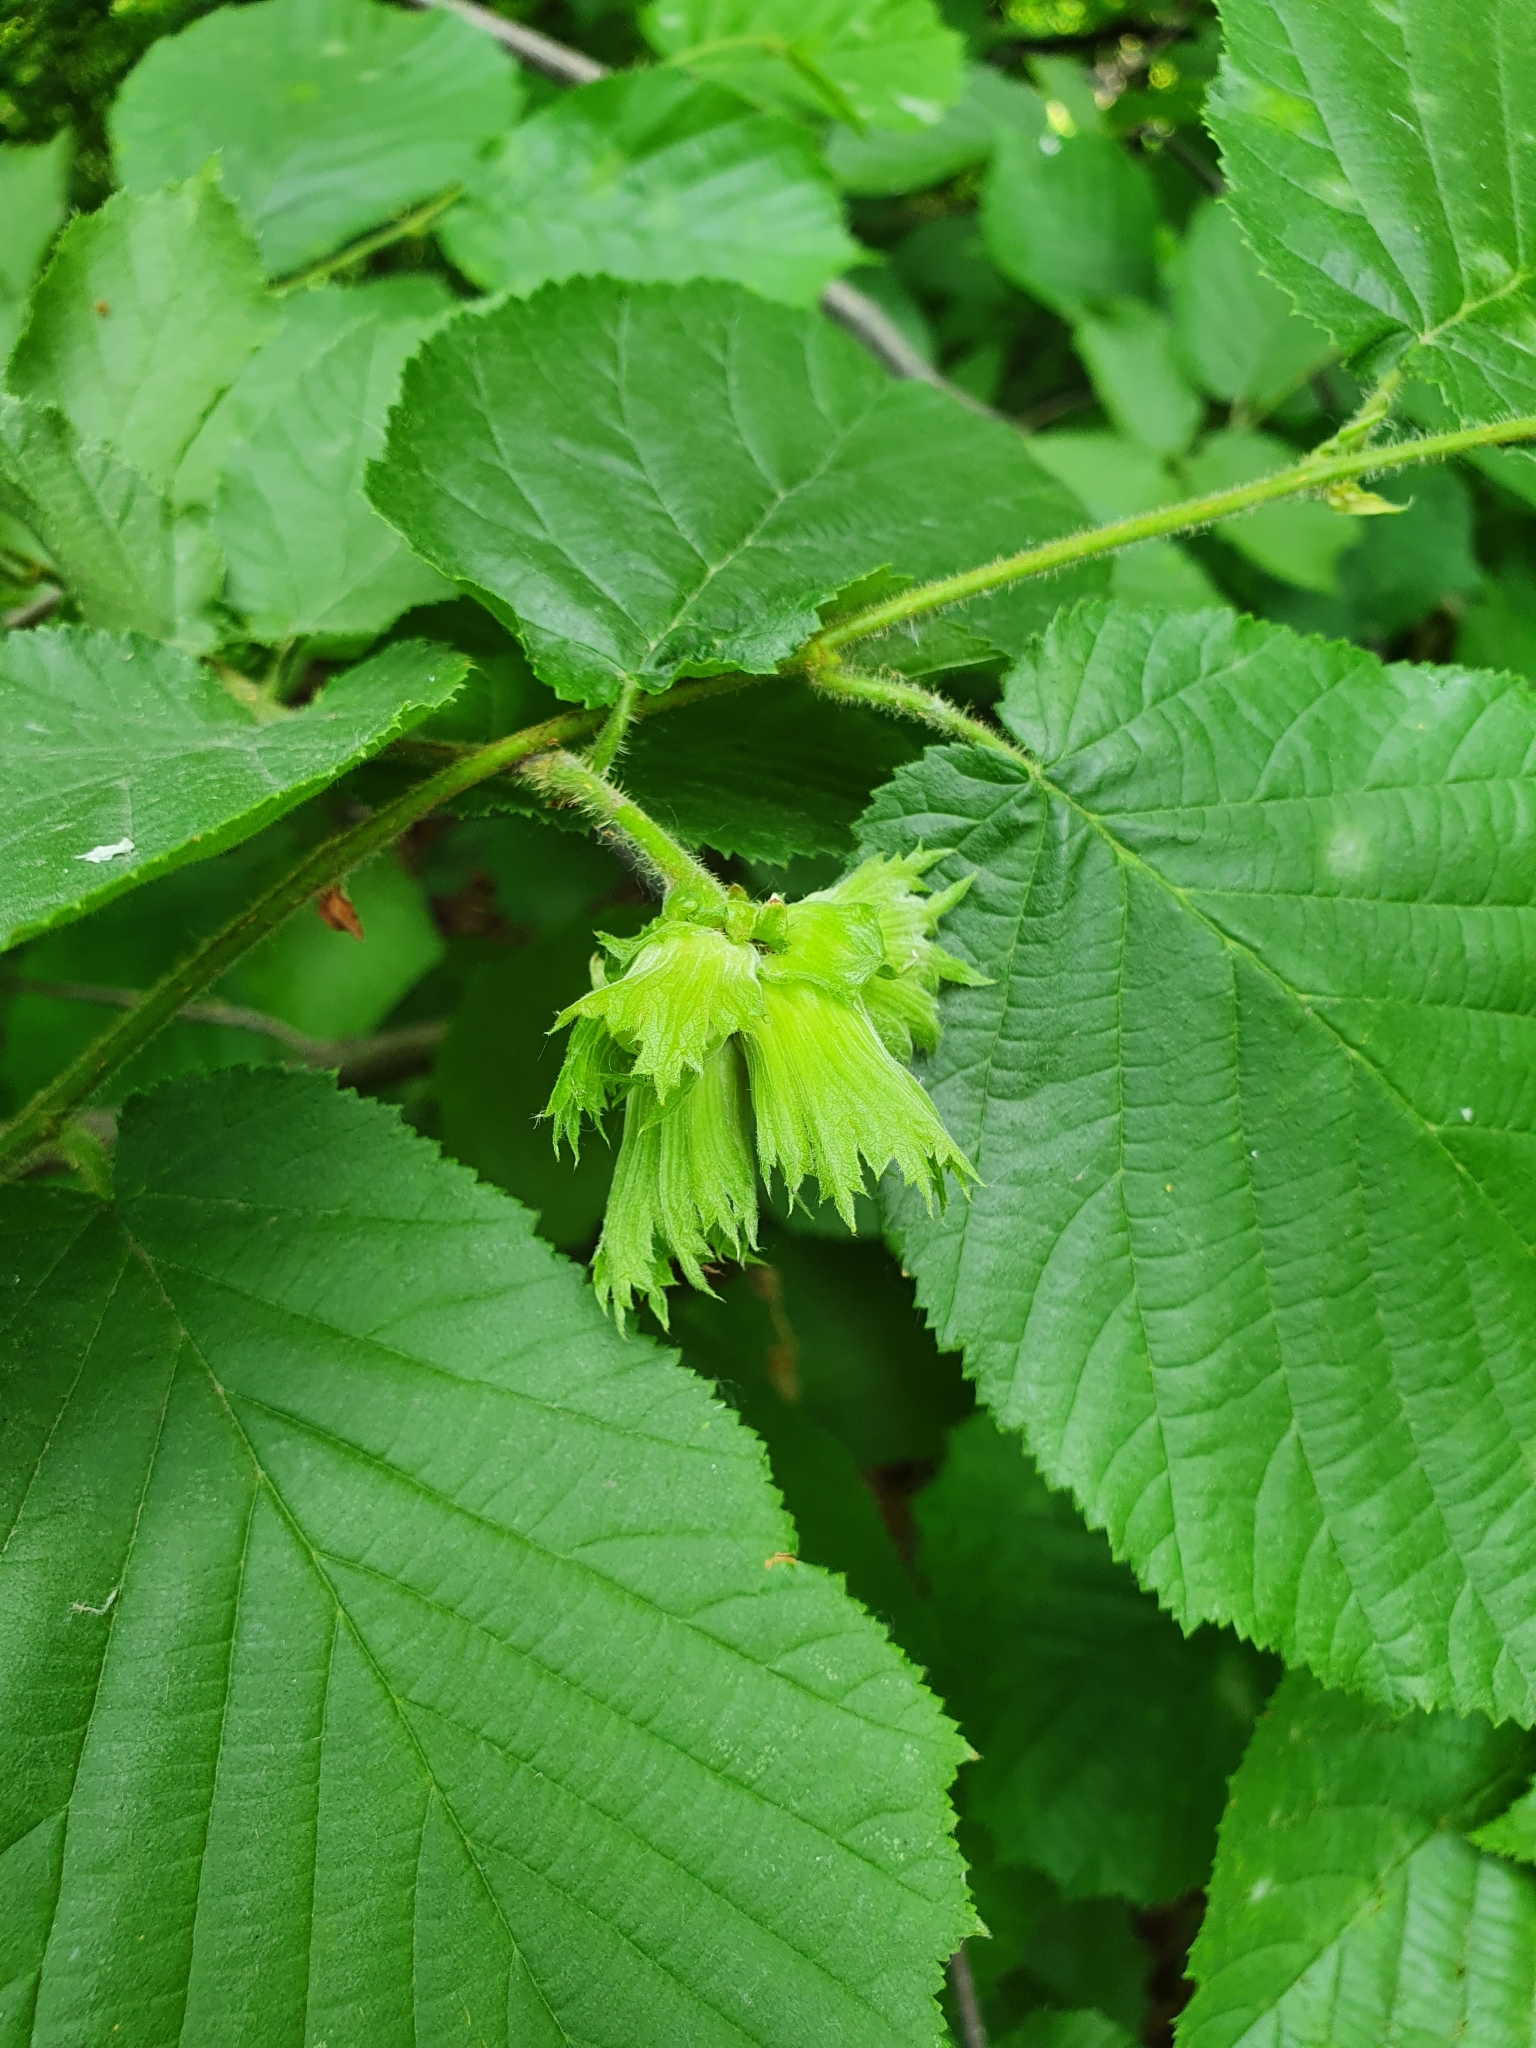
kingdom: Plantae
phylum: Tracheophyta
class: Magnoliopsida
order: Fagales
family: Betulaceae
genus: Corylus
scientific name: Corylus avellana
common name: European hazel
